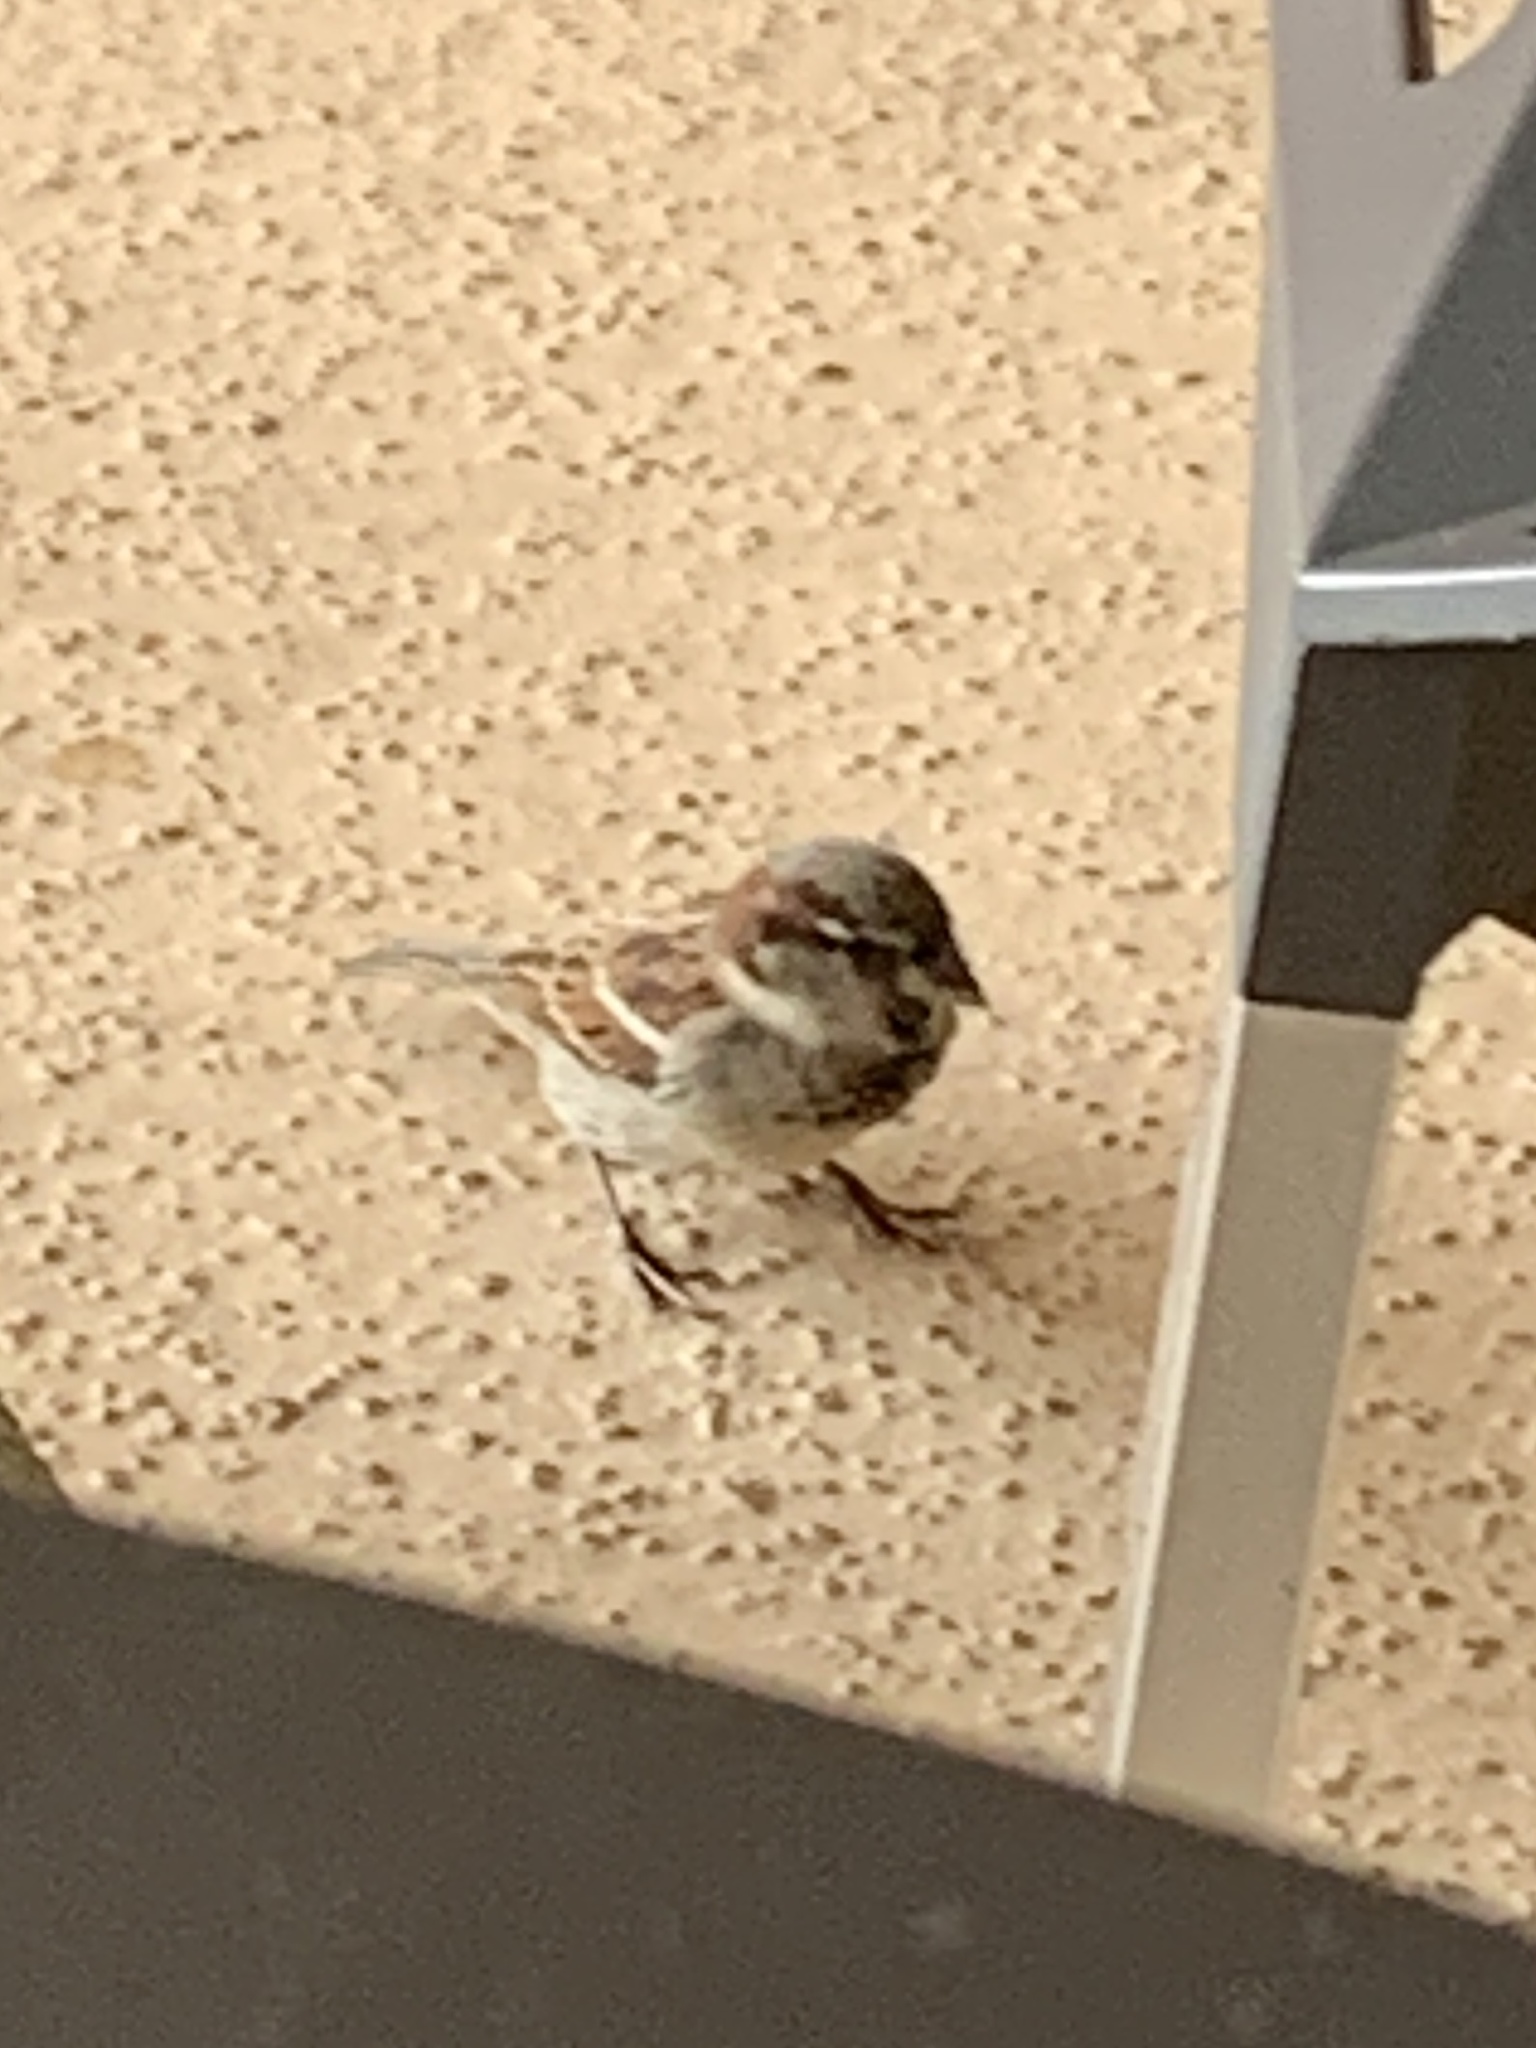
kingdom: Animalia
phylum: Chordata
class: Aves
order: Passeriformes
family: Passeridae
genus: Passer
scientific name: Passer domesticus
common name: House sparrow
